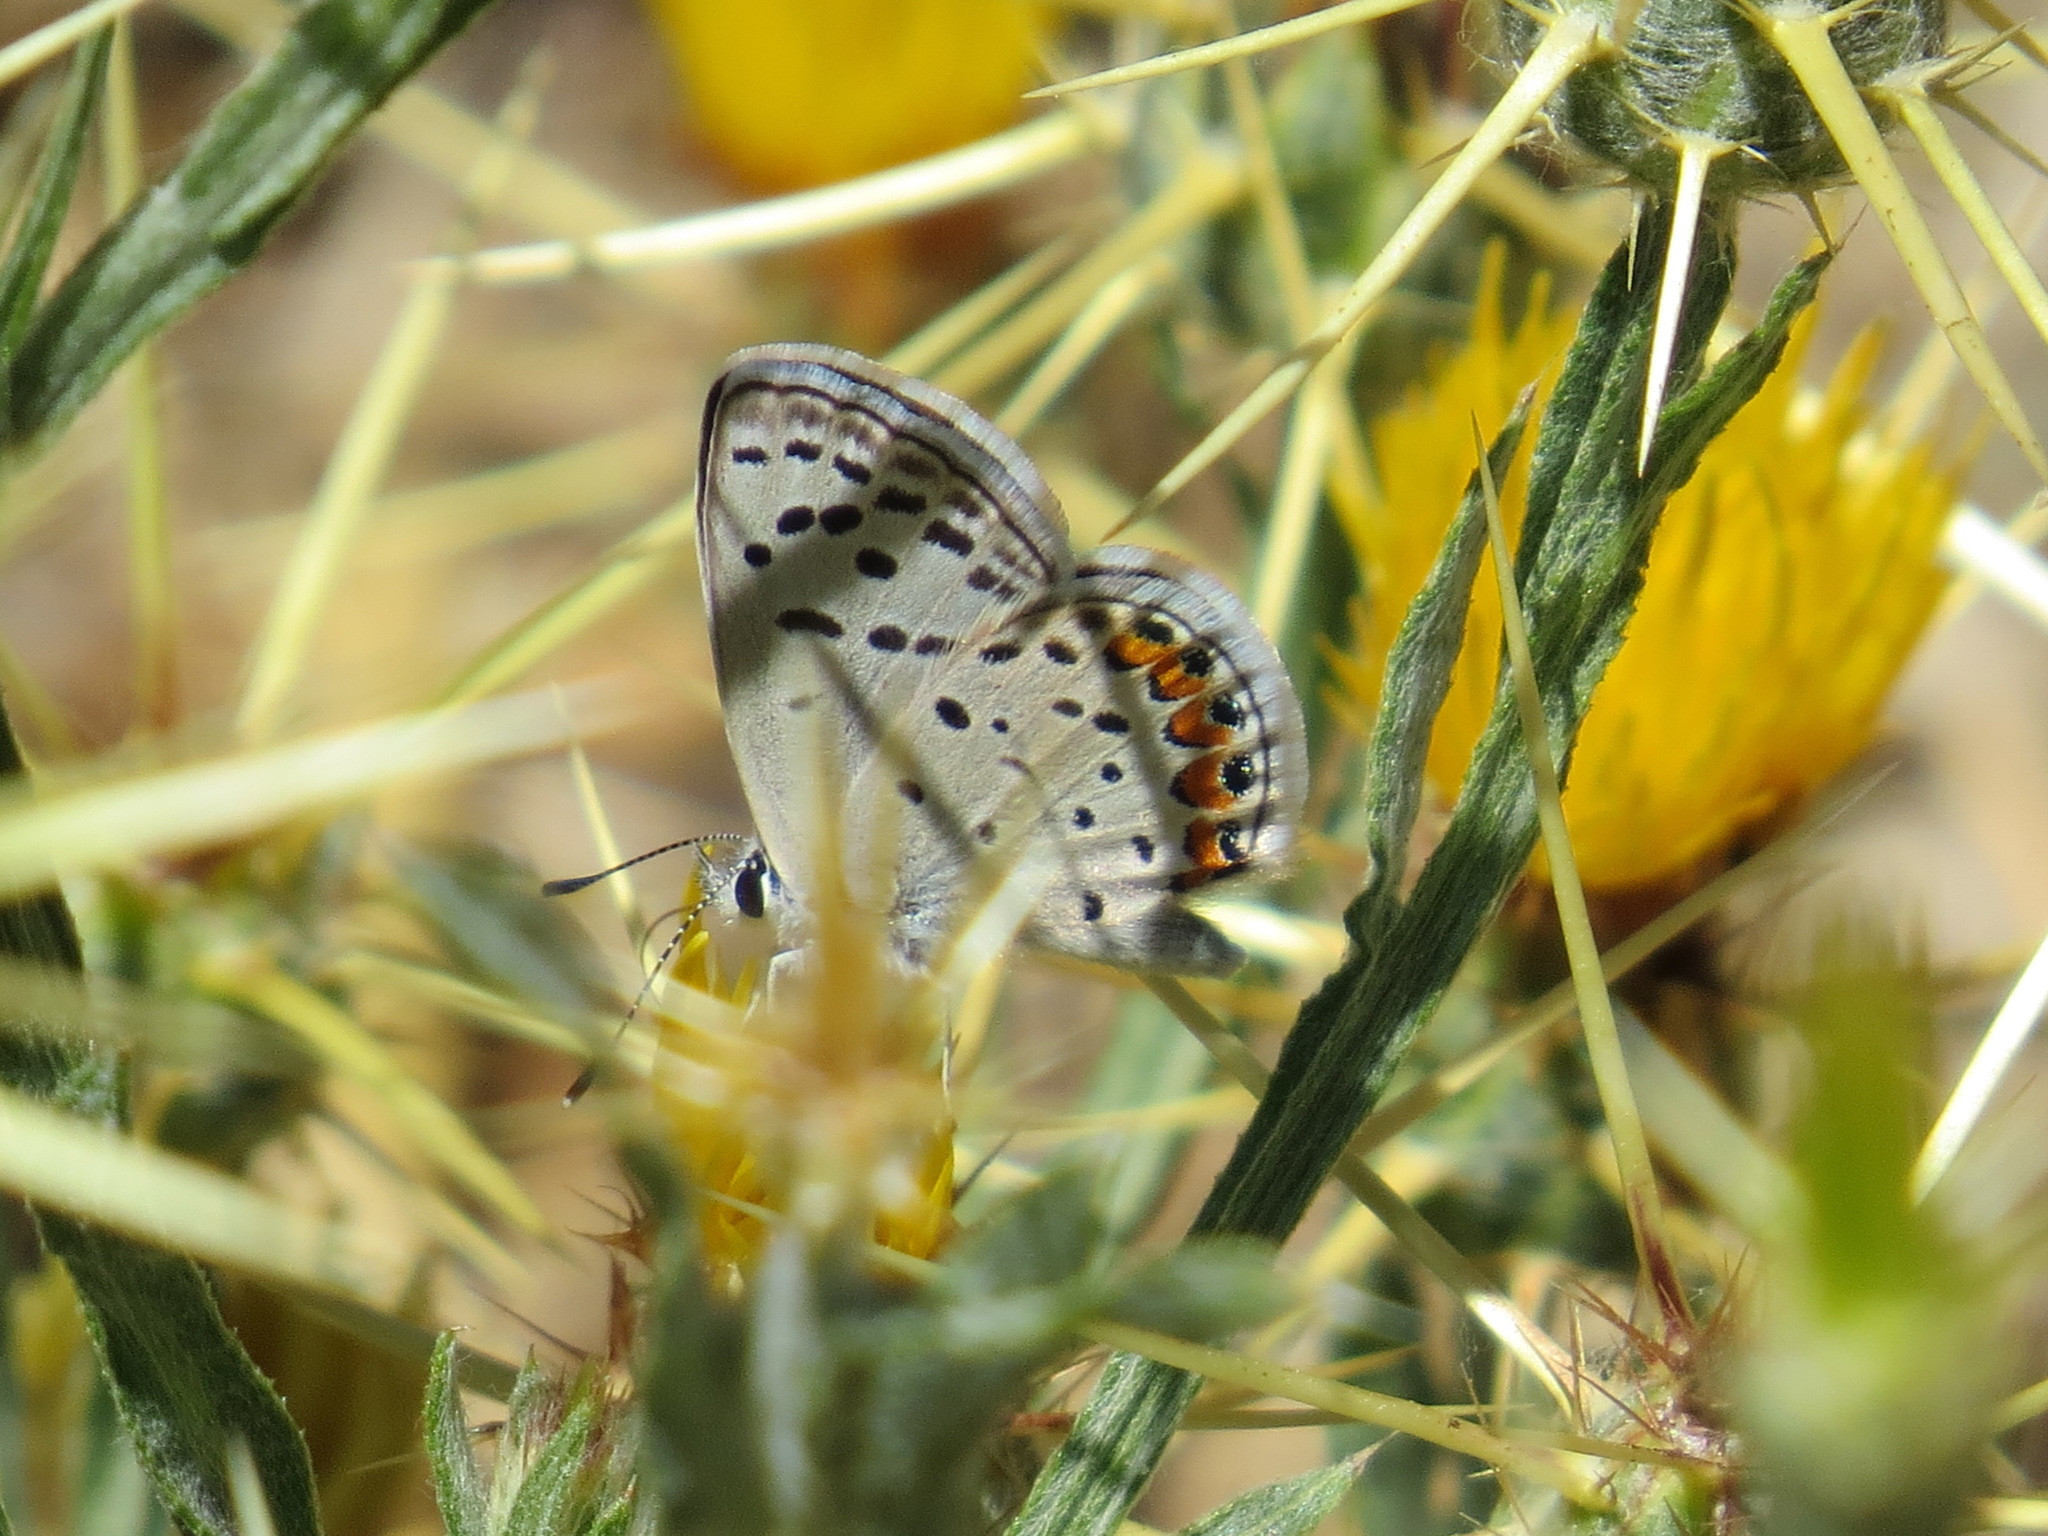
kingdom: Animalia
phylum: Arthropoda
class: Insecta
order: Lepidoptera
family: Lycaenidae
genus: Icaricia
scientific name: Icaricia acmon
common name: Acmon blue
